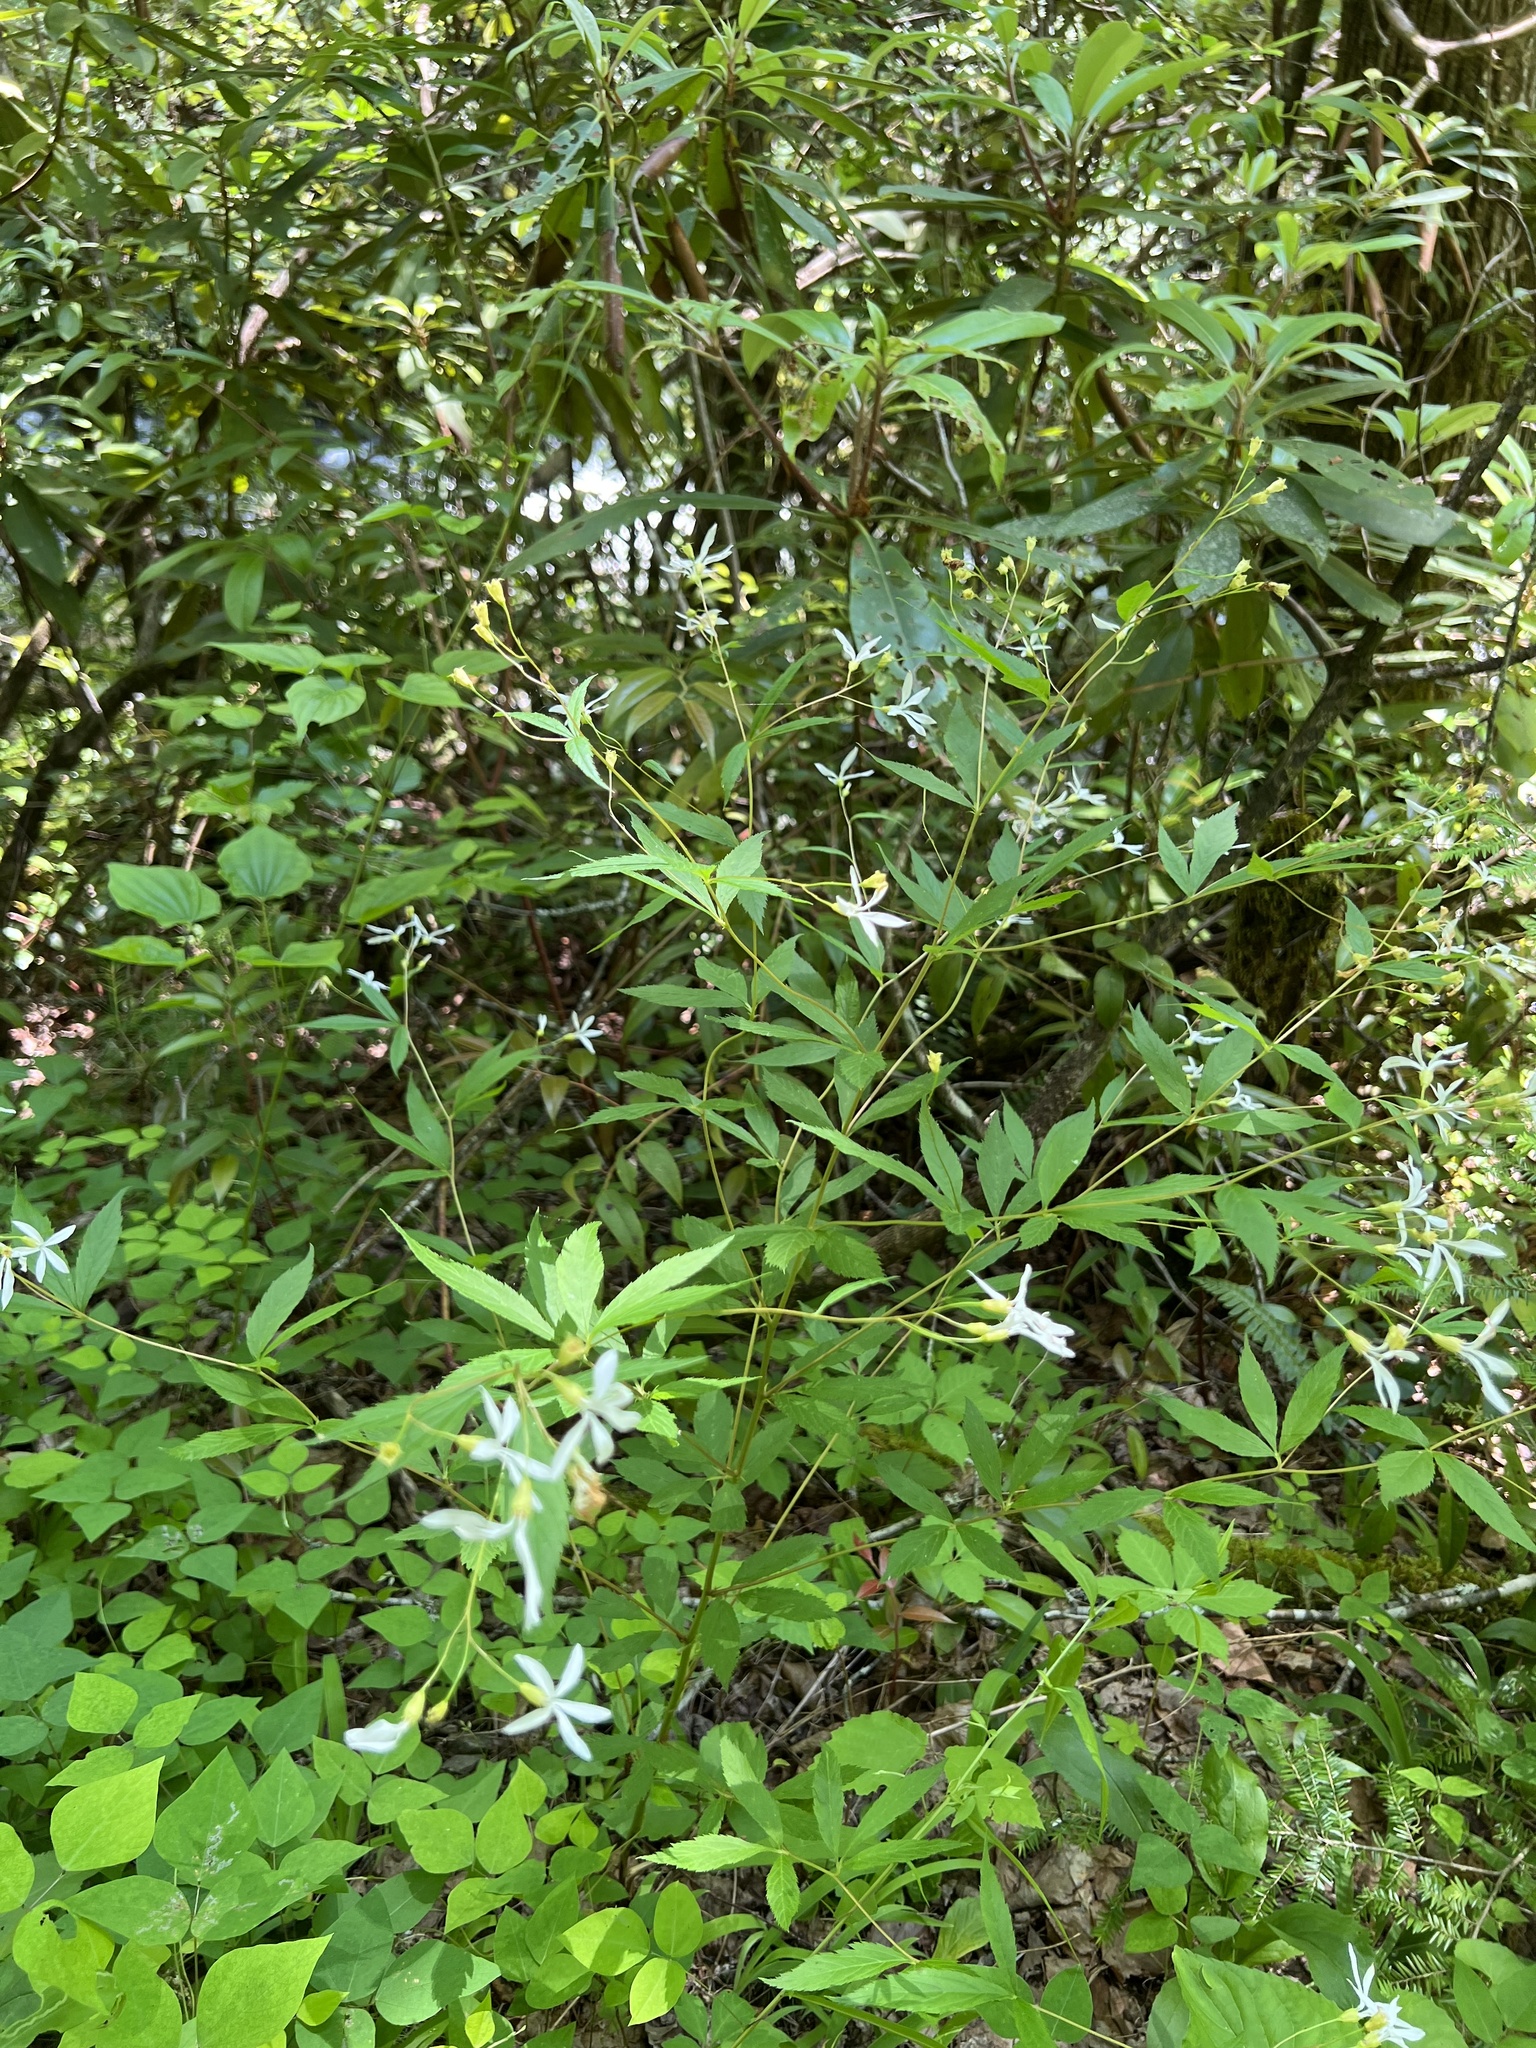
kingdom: Plantae
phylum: Tracheophyta
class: Magnoliopsida
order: Rosales
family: Rosaceae
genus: Gillenia
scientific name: Gillenia trifoliata
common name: Bowman's-root
